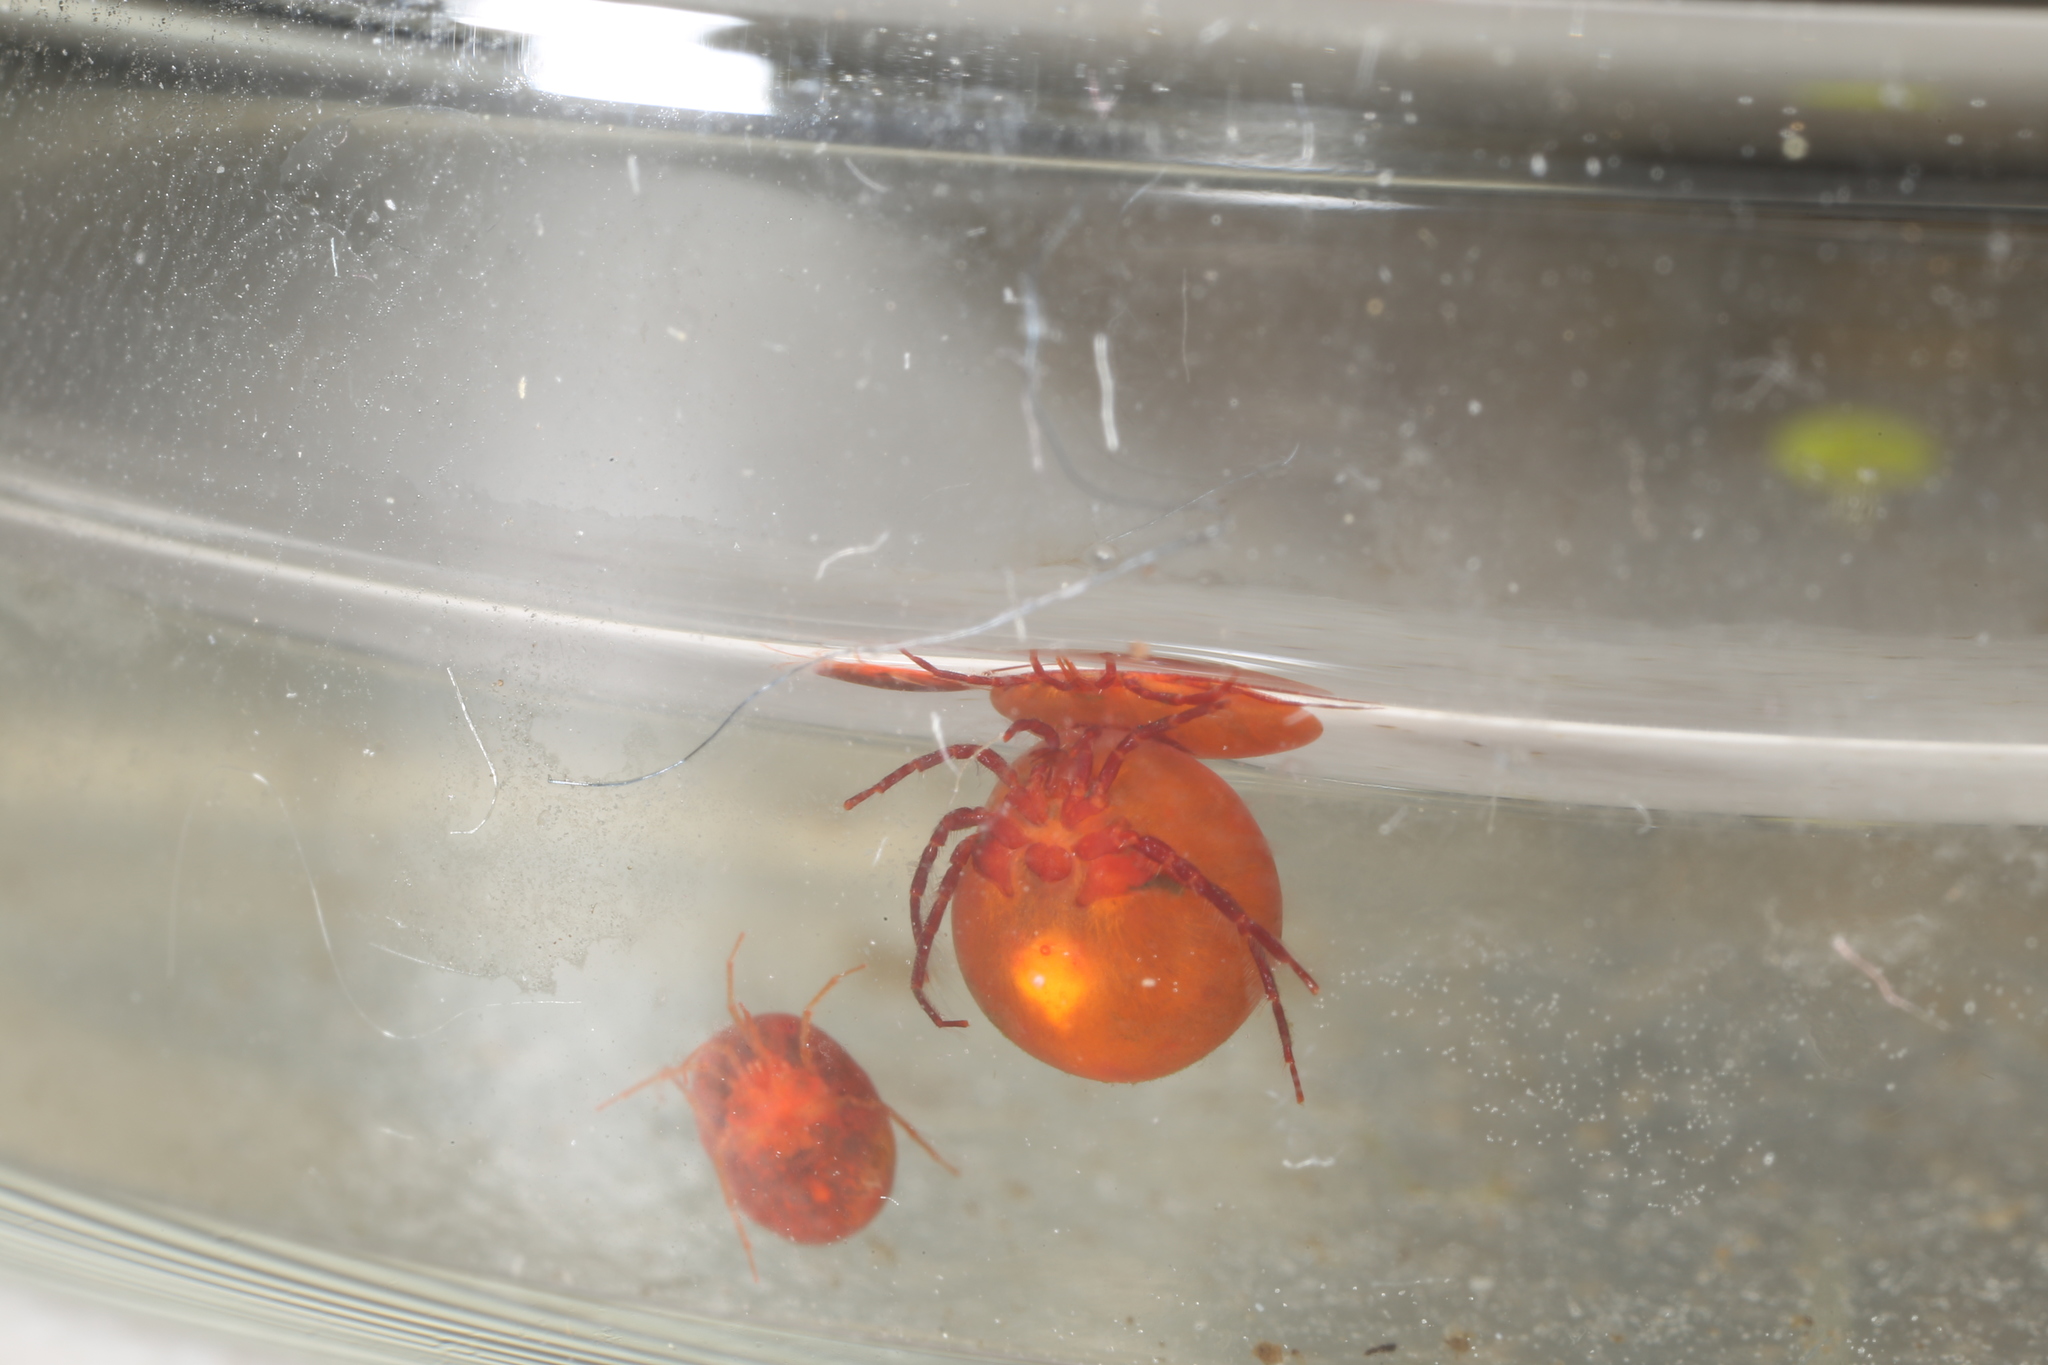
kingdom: Animalia
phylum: Arthropoda
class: Arachnida
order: Trombidiformes
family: Hydrachnidae
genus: Hydrachna
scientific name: Hydrachna globosa
